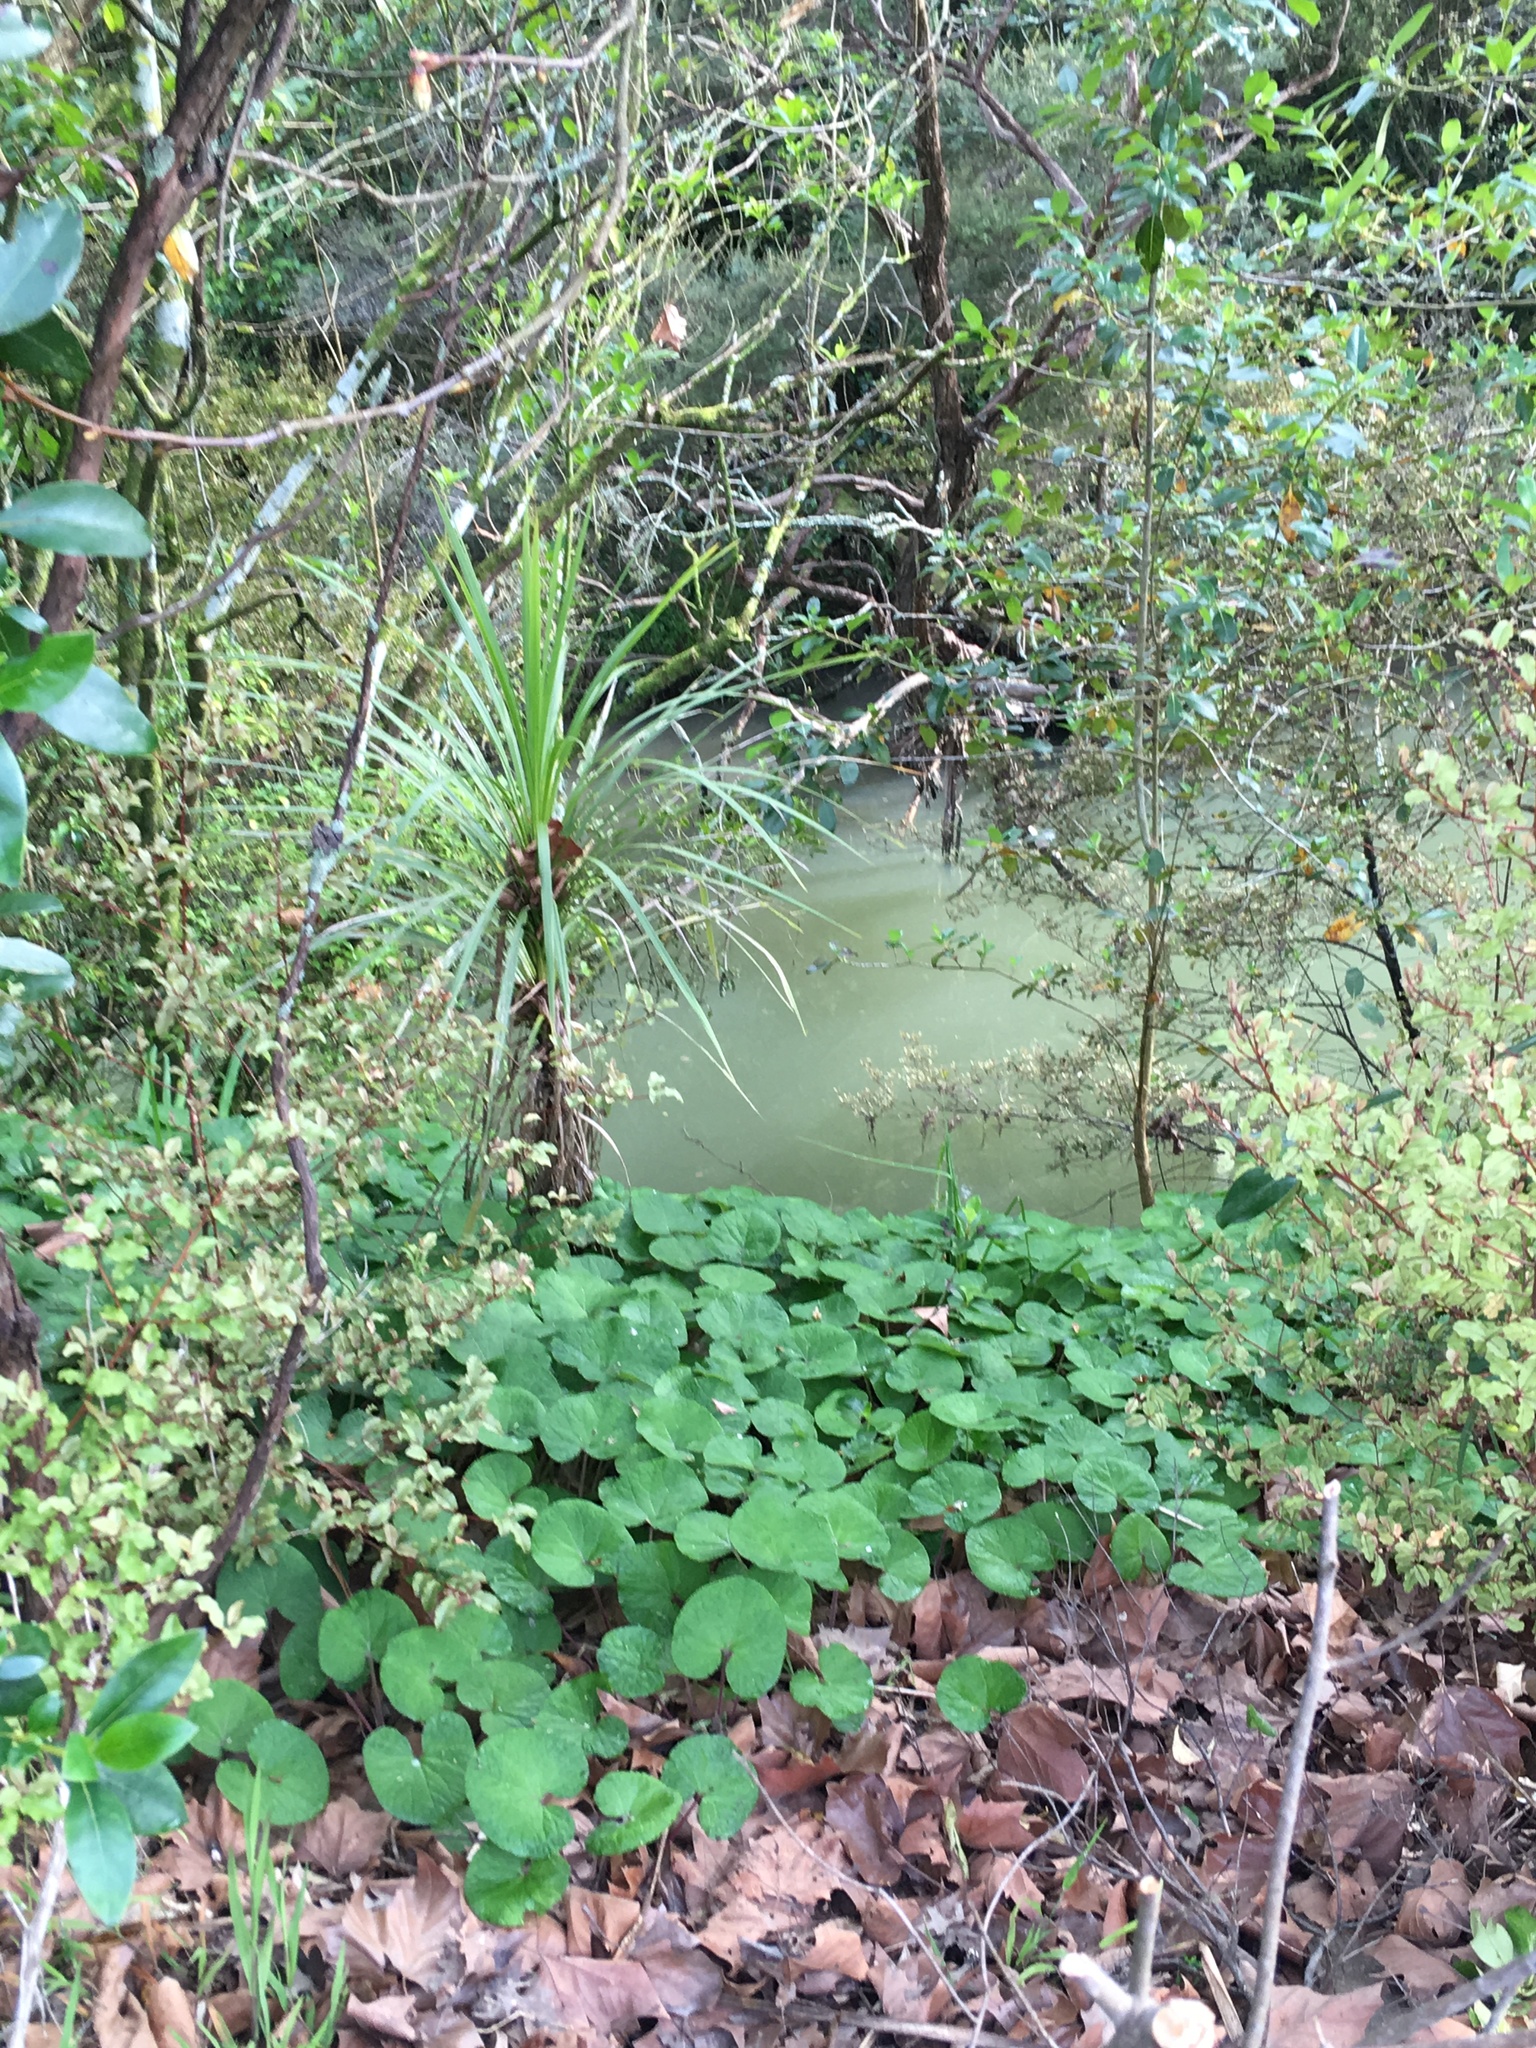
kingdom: Plantae
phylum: Tracheophyta
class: Magnoliopsida
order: Asterales
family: Asteraceae
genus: Petasites
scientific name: Petasites pyrenaicus
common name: Winter heliotrope
